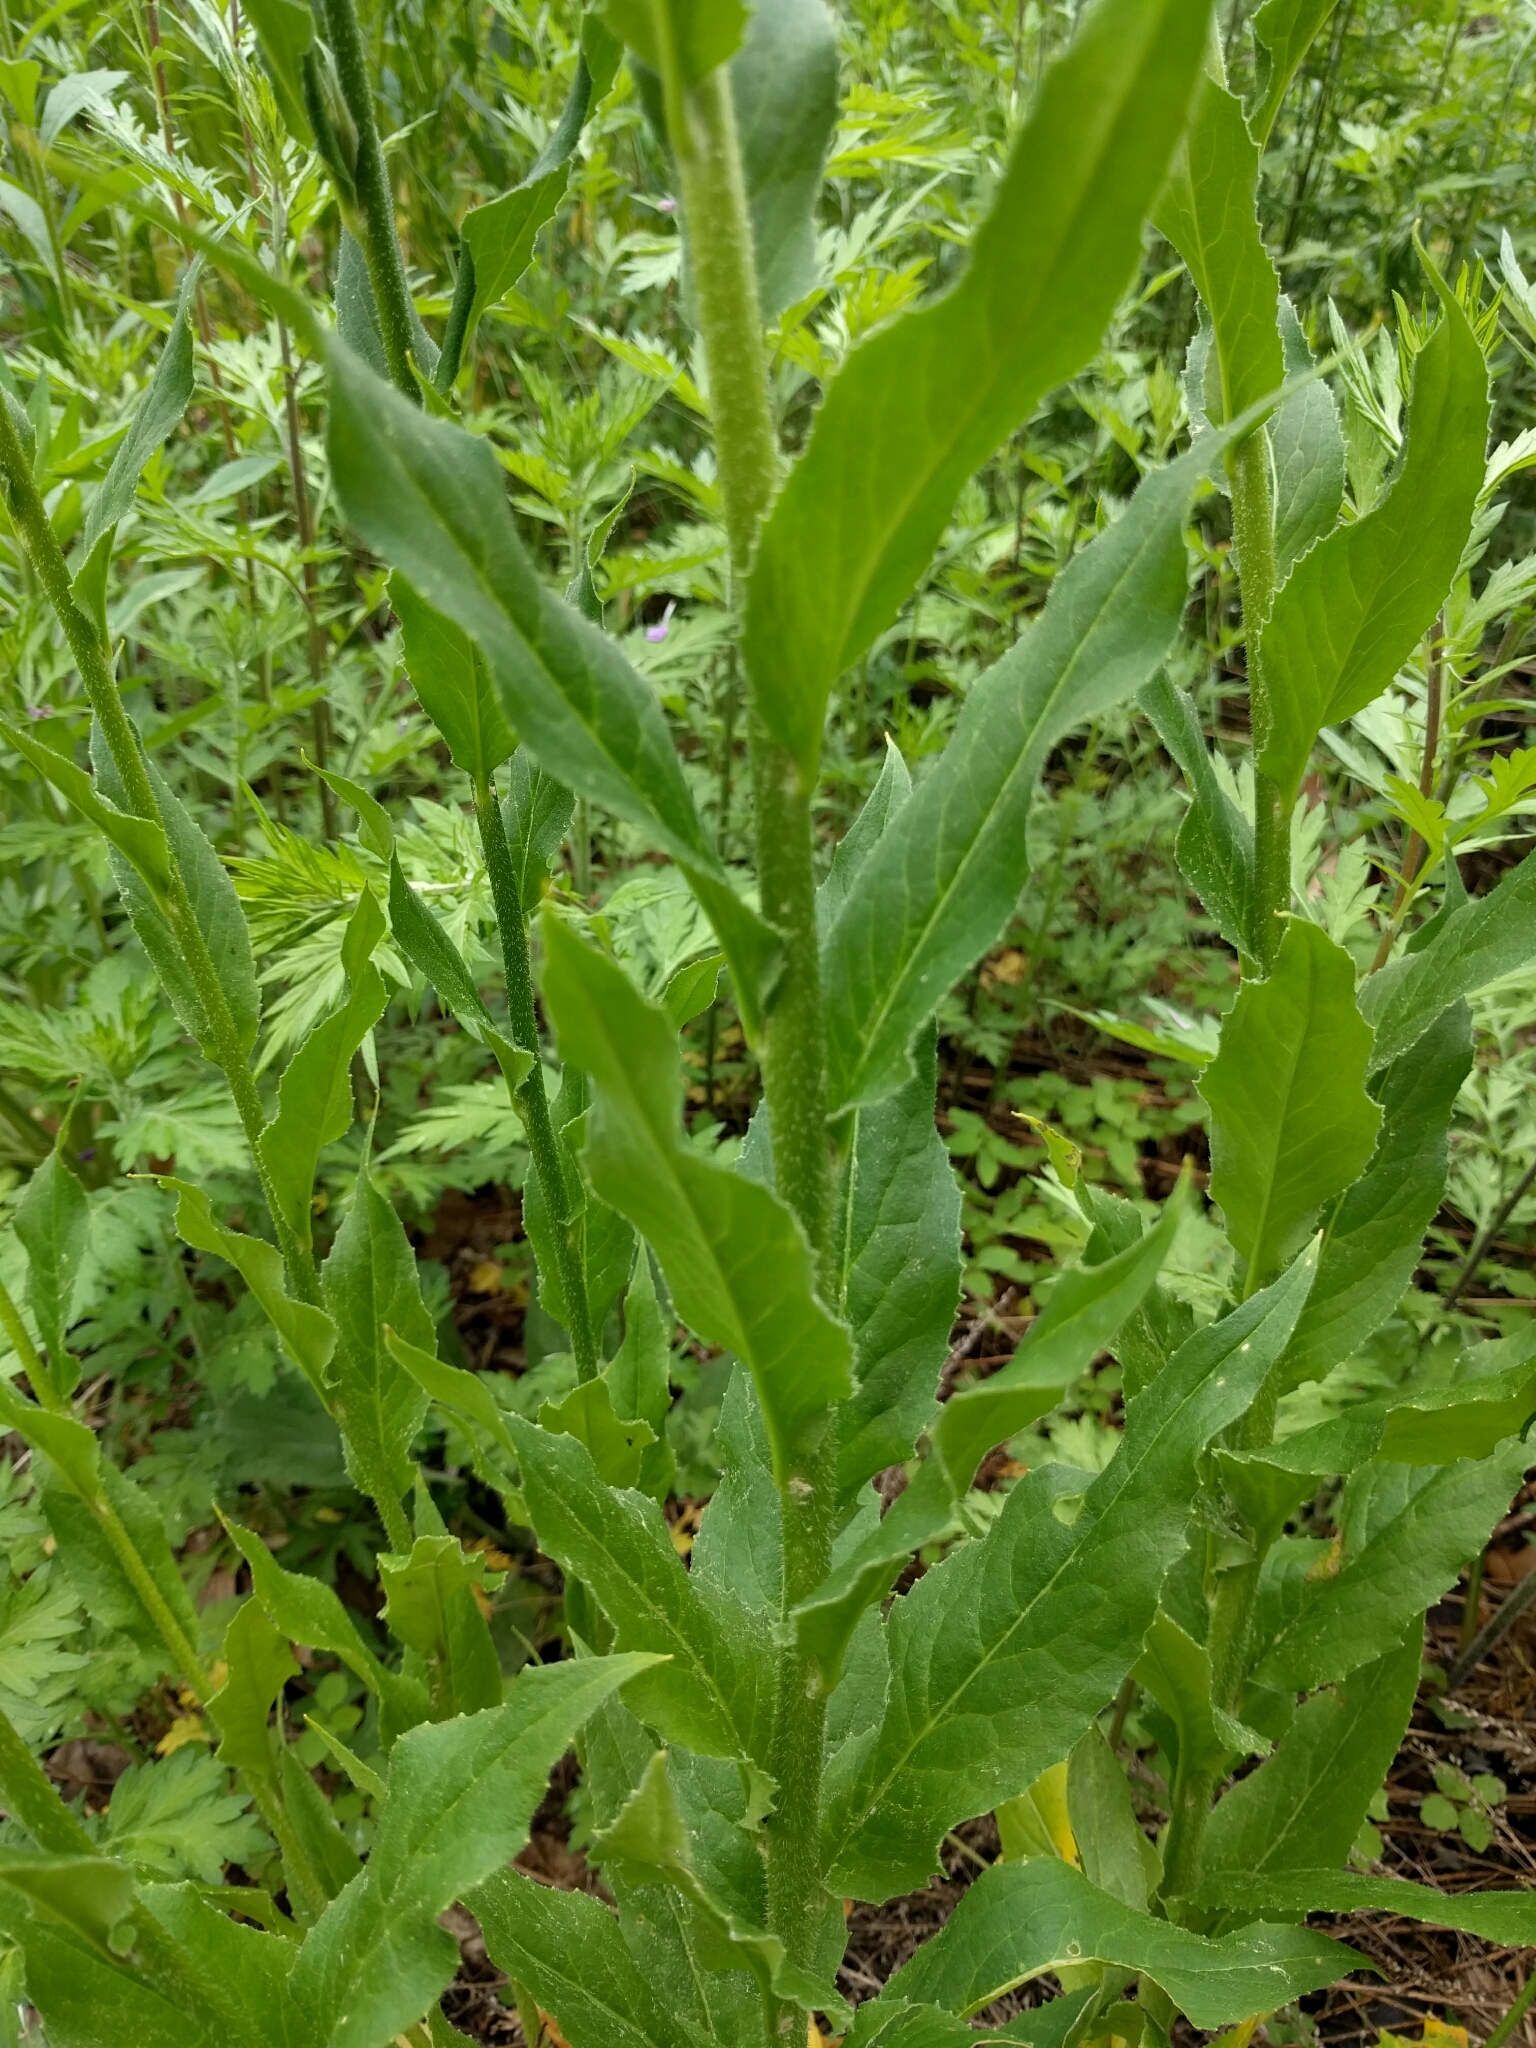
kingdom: Plantae
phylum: Tracheophyta
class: Magnoliopsida
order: Brassicales
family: Brassicaceae
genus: Hesperis
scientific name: Hesperis matronalis
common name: Dame's-violet
